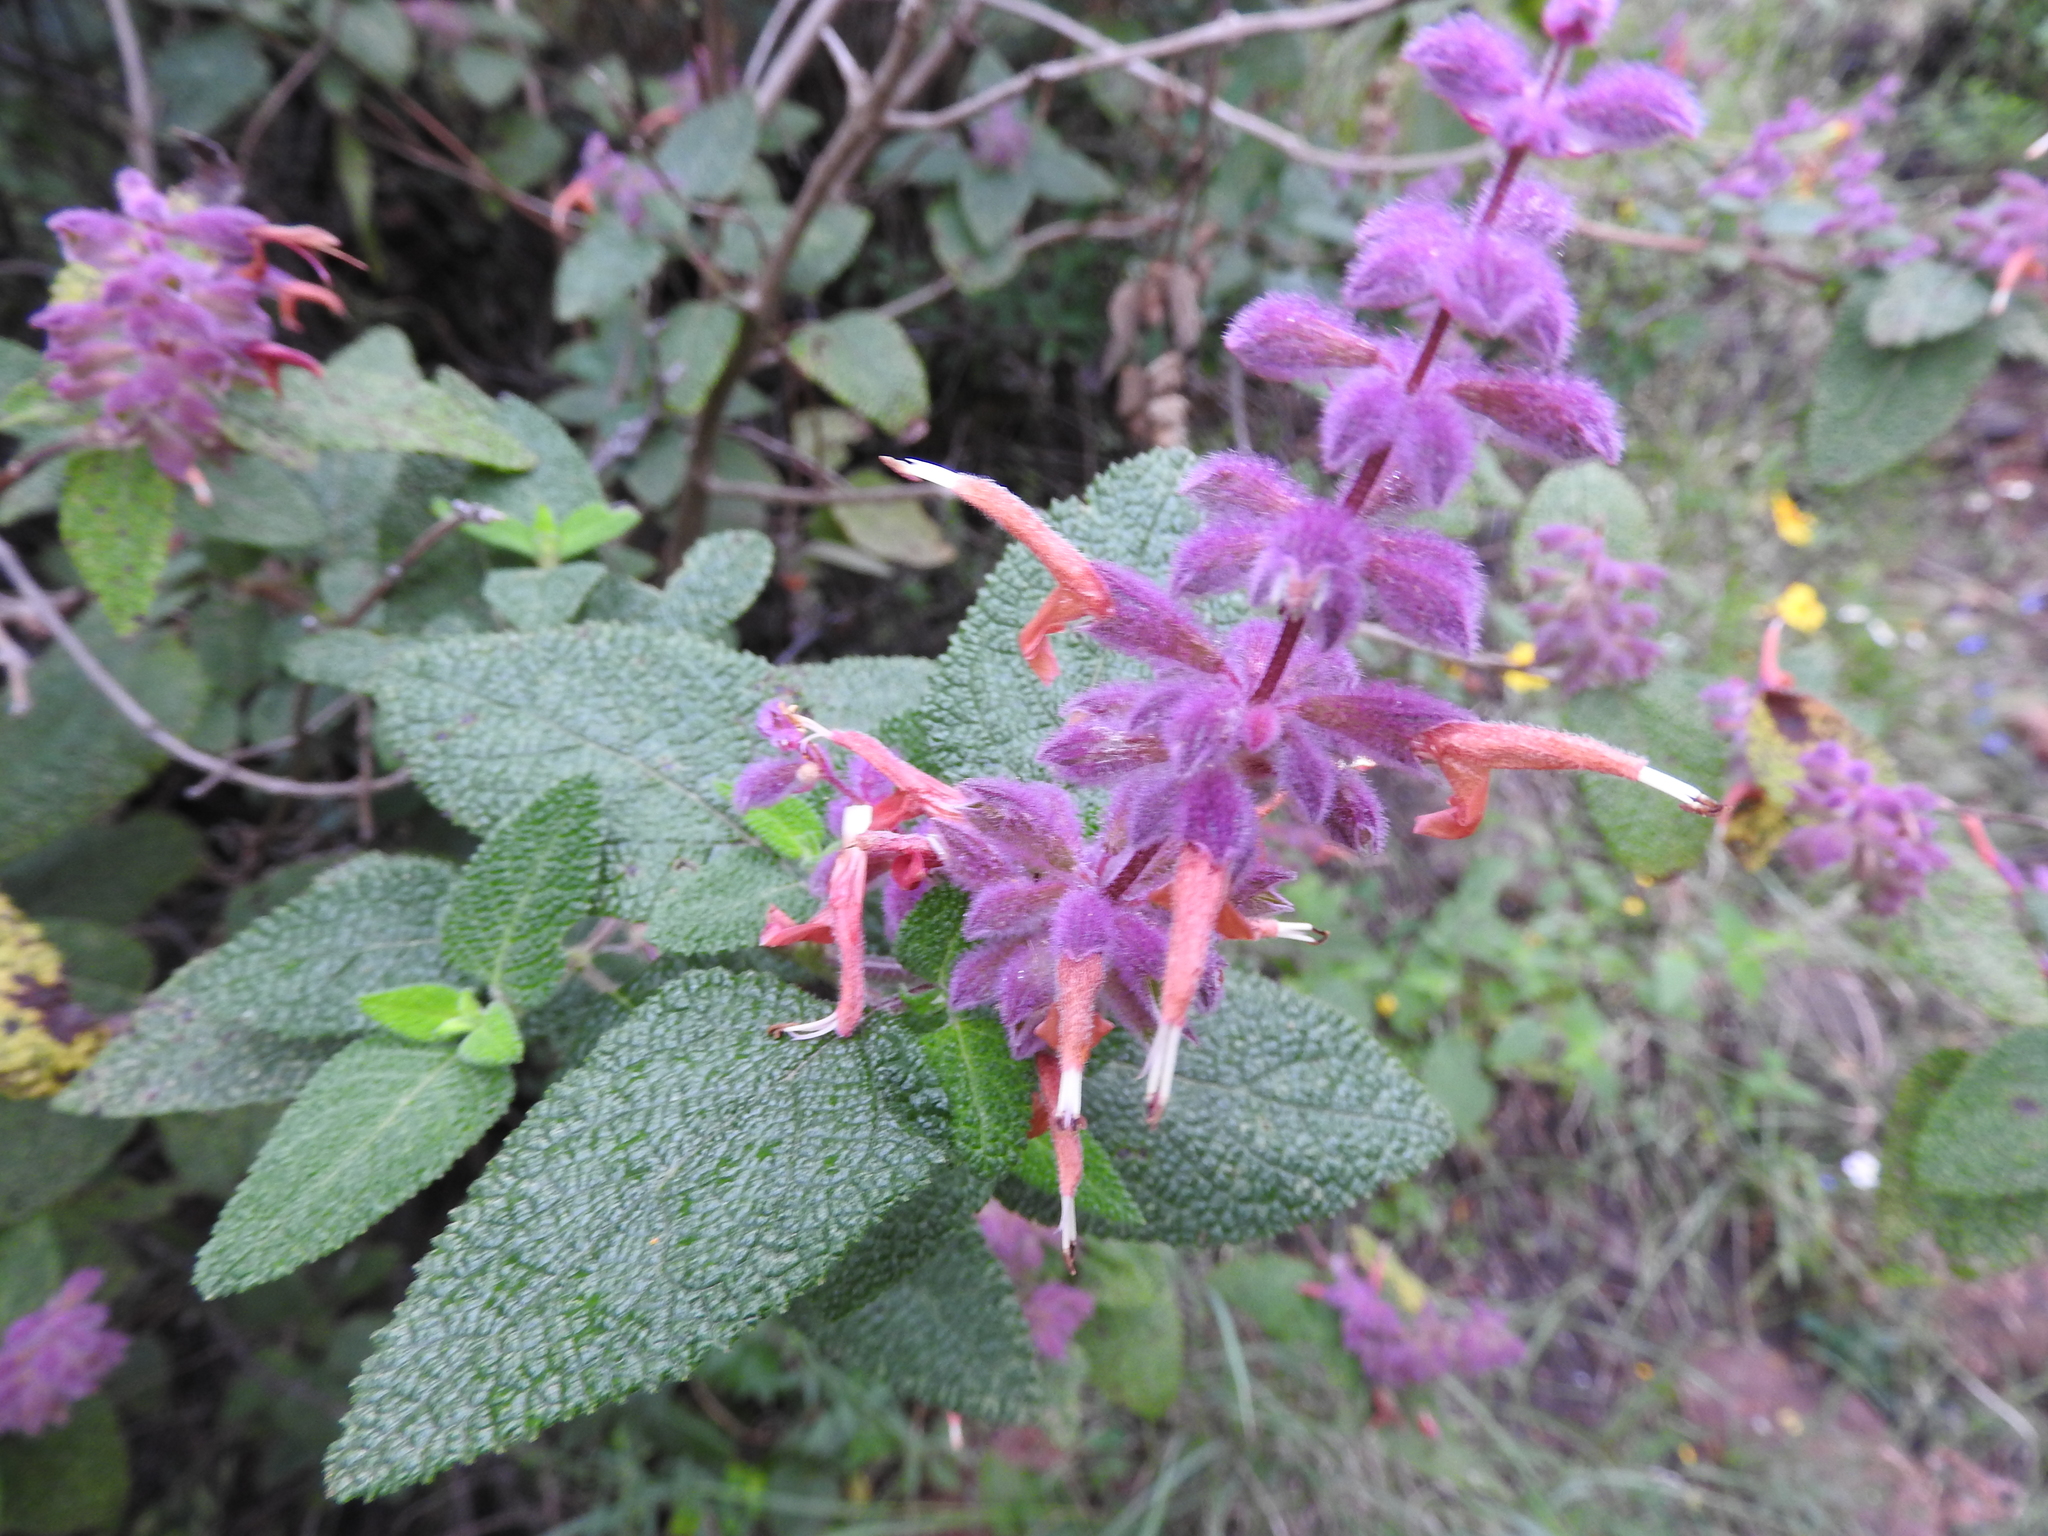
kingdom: Plantae
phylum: Tracheophyta
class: Magnoliopsida
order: Lamiales
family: Lamiaceae
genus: Salvia
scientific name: Salvia lasiantha
